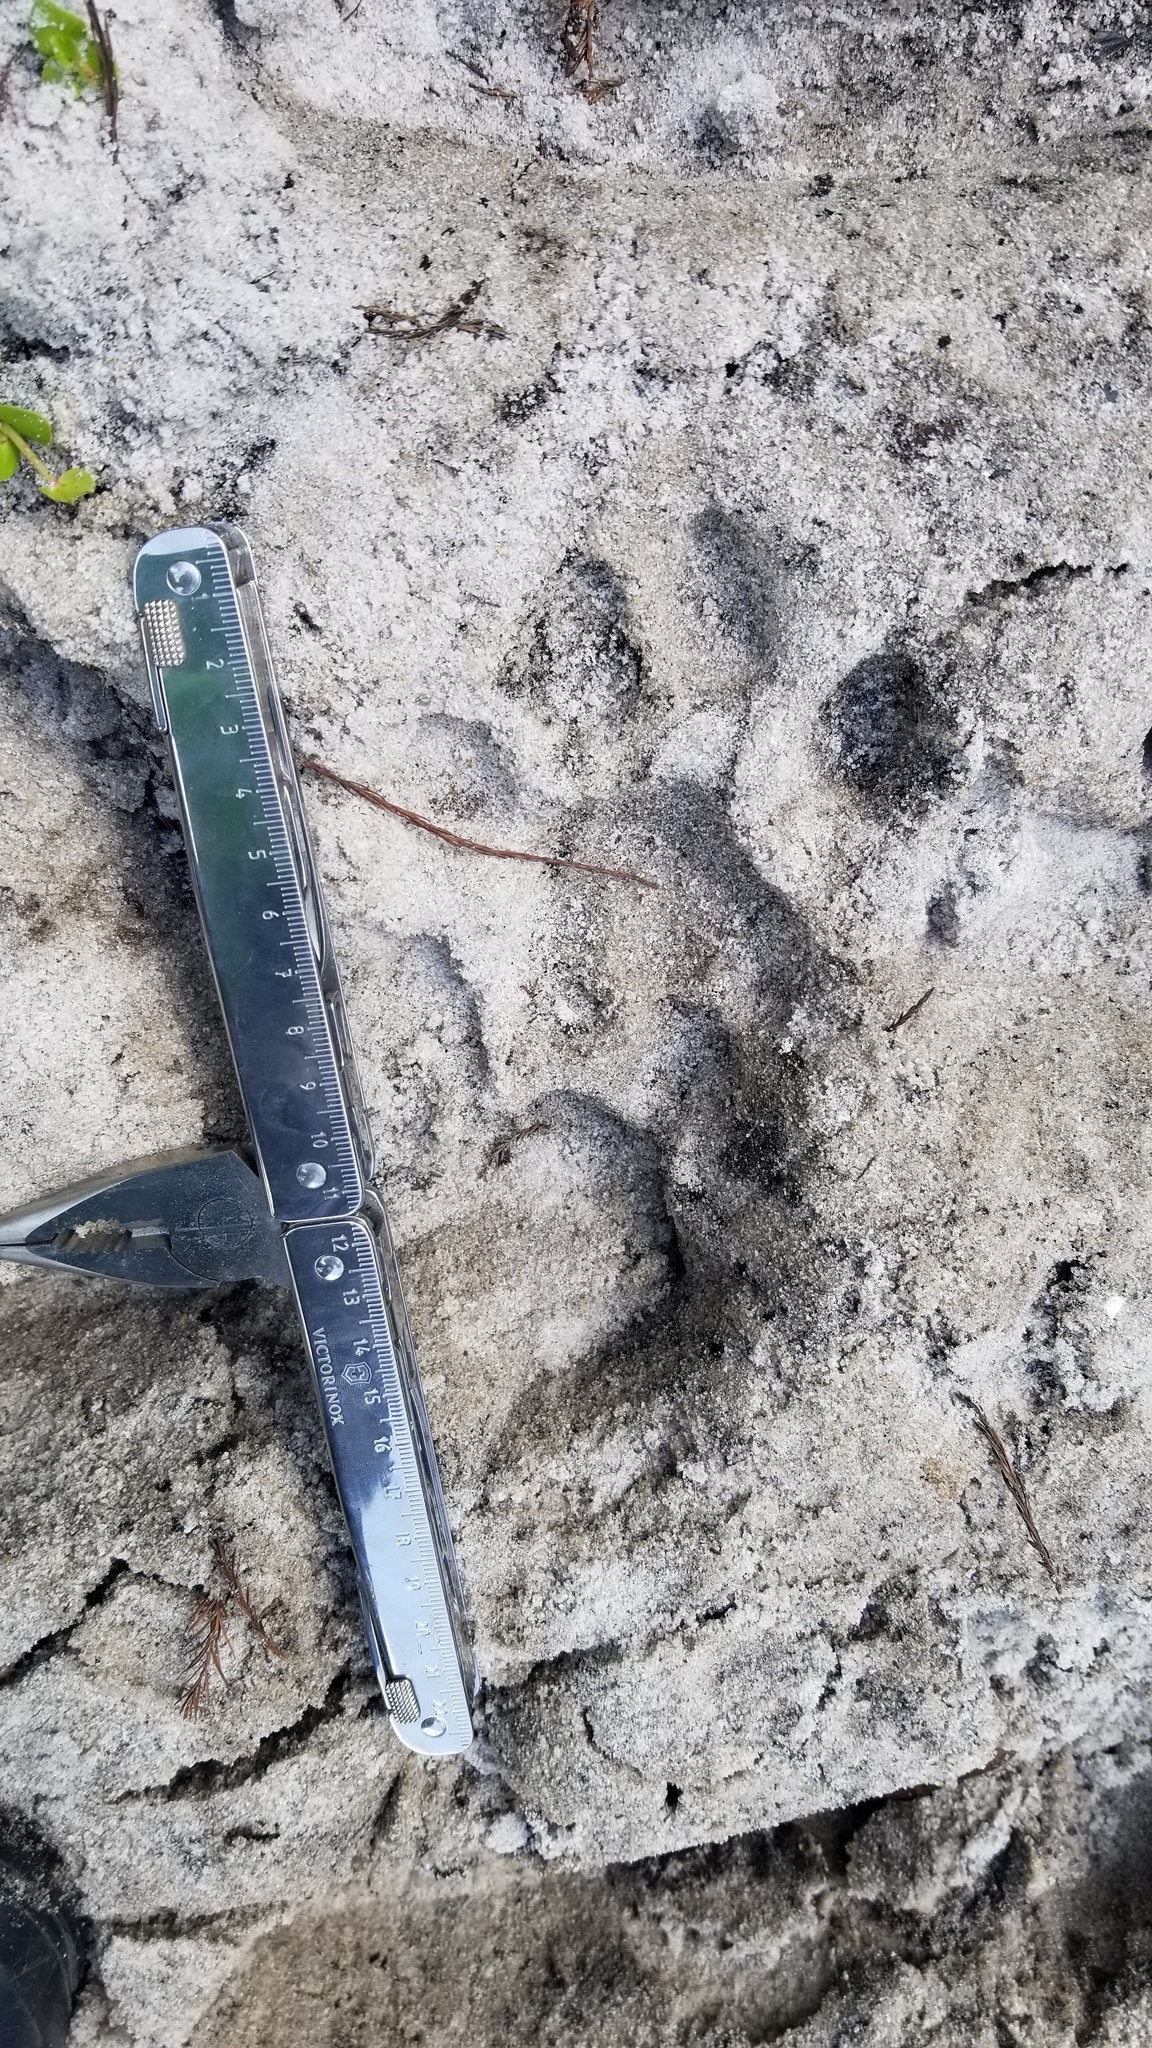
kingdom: Animalia
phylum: Chordata
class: Mammalia
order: Carnivora
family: Felidae
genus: Puma
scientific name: Puma concolor
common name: Puma
